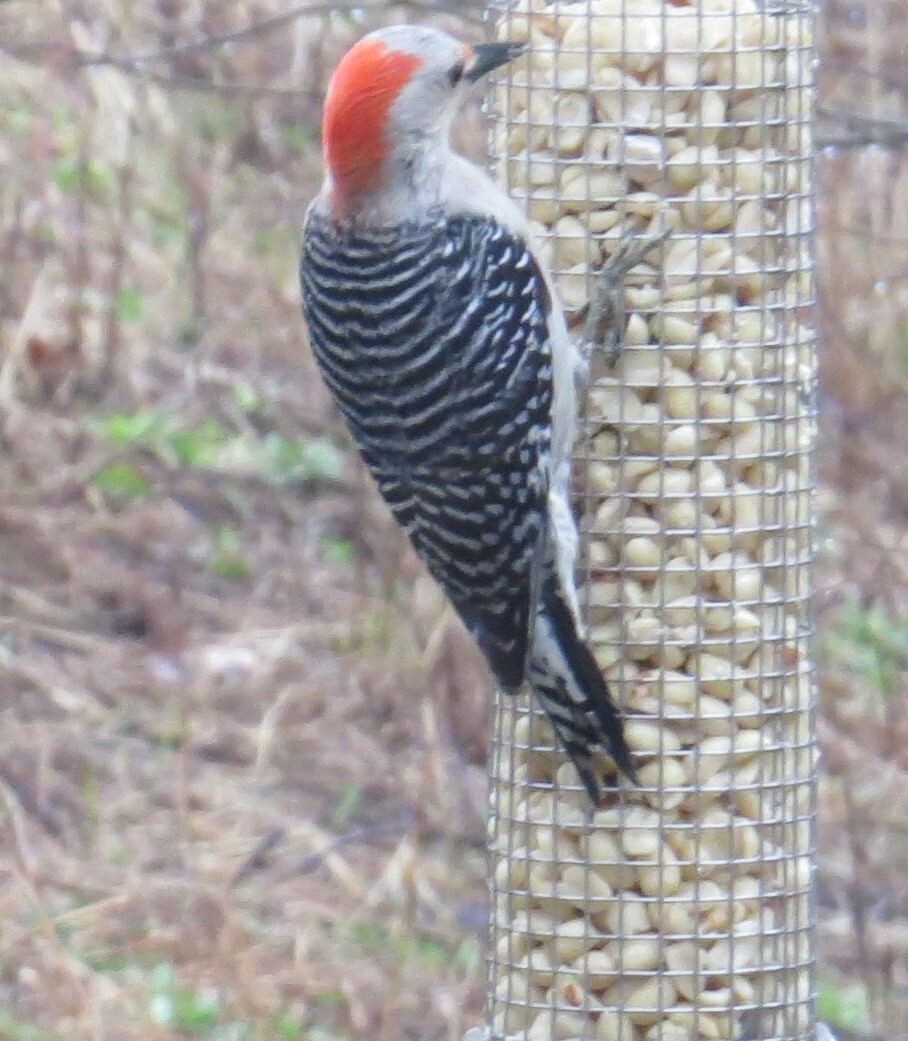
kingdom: Animalia
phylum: Chordata
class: Aves
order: Piciformes
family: Picidae
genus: Melanerpes
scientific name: Melanerpes carolinus
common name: Red-bellied woodpecker
